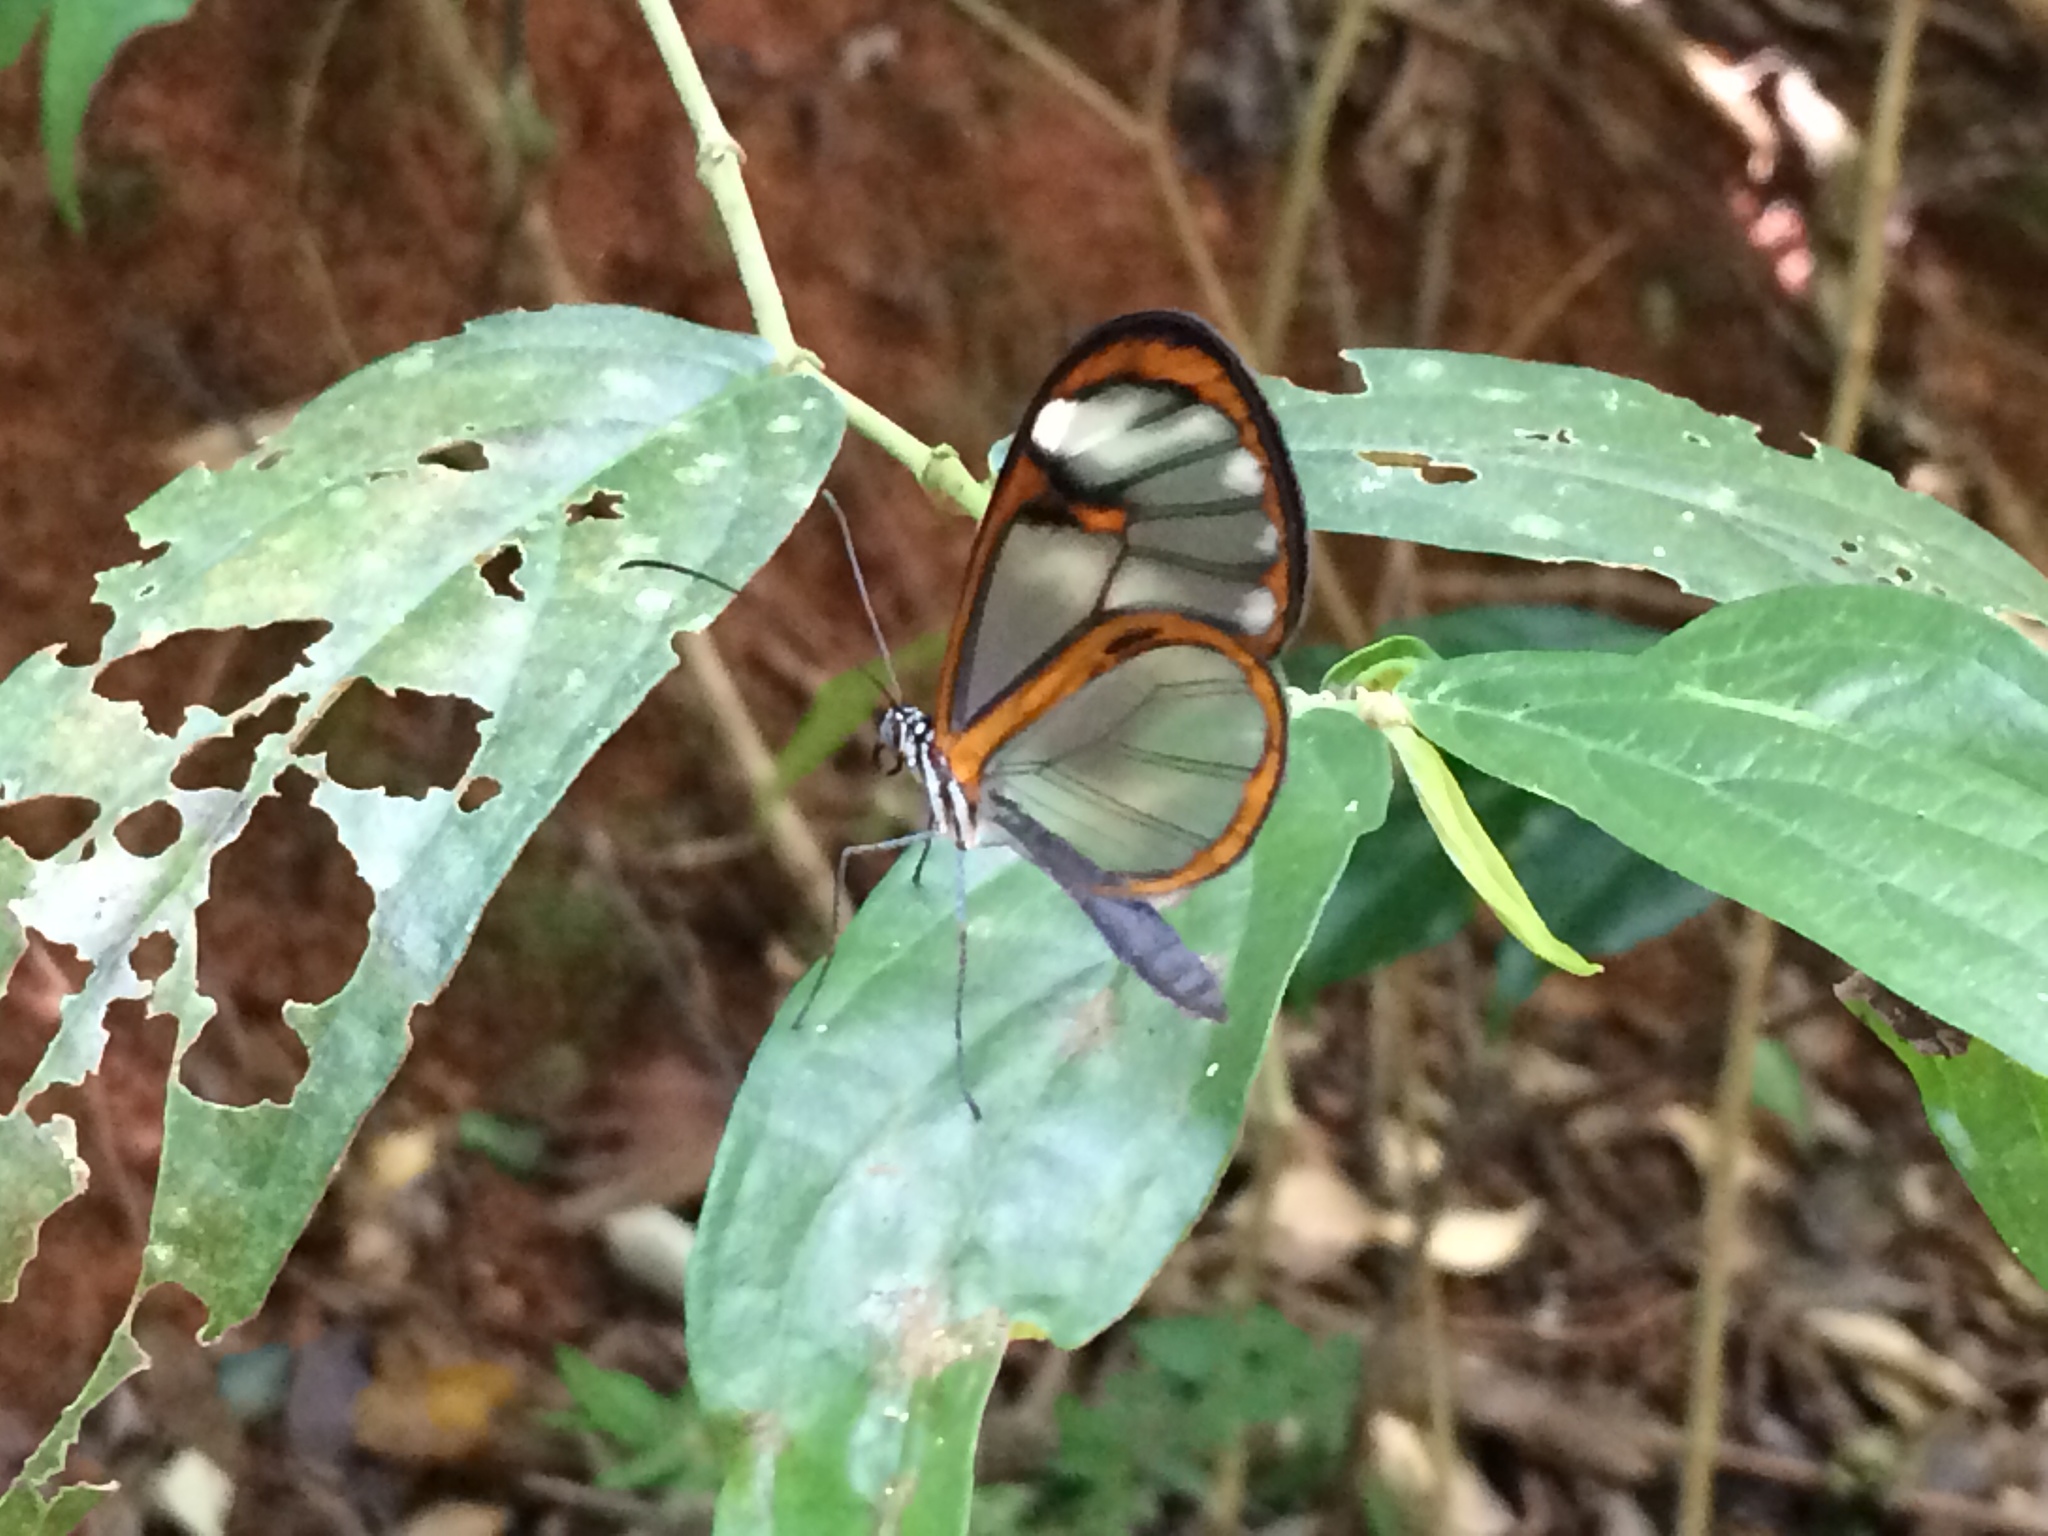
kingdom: Animalia
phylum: Arthropoda
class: Insecta
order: Lepidoptera
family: Nymphalidae
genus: Hypoleria
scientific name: Hypoleria alema
